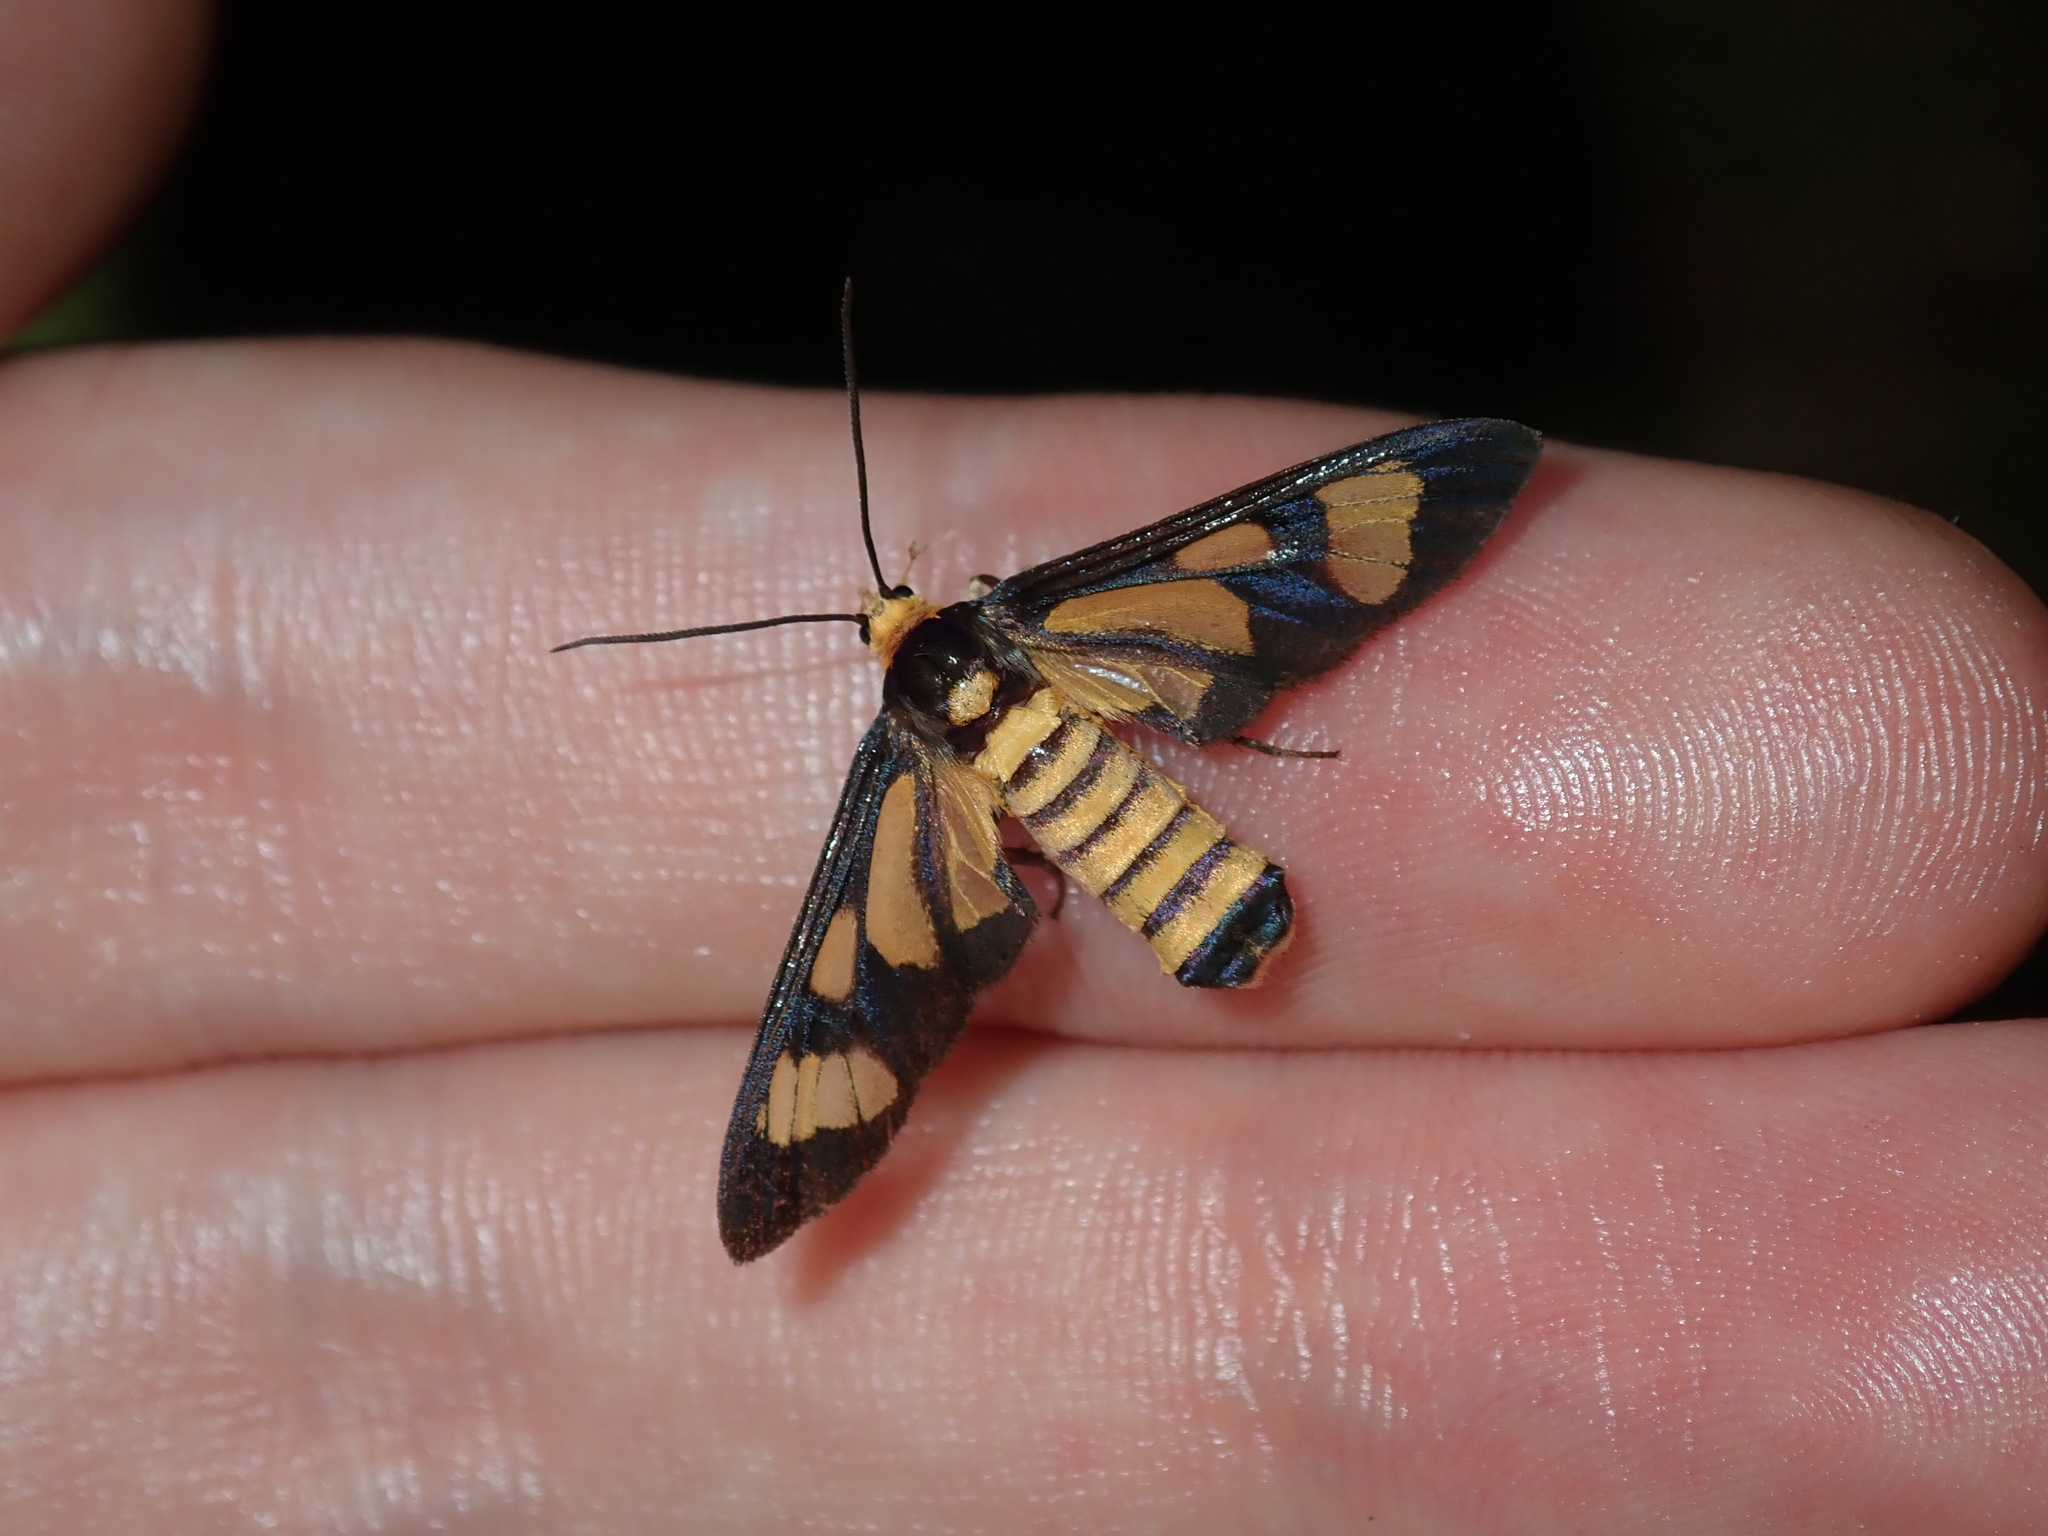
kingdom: Animalia
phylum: Arthropoda
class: Insecta
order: Lepidoptera
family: Erebidae
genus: Amata
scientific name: Amata lampetis
